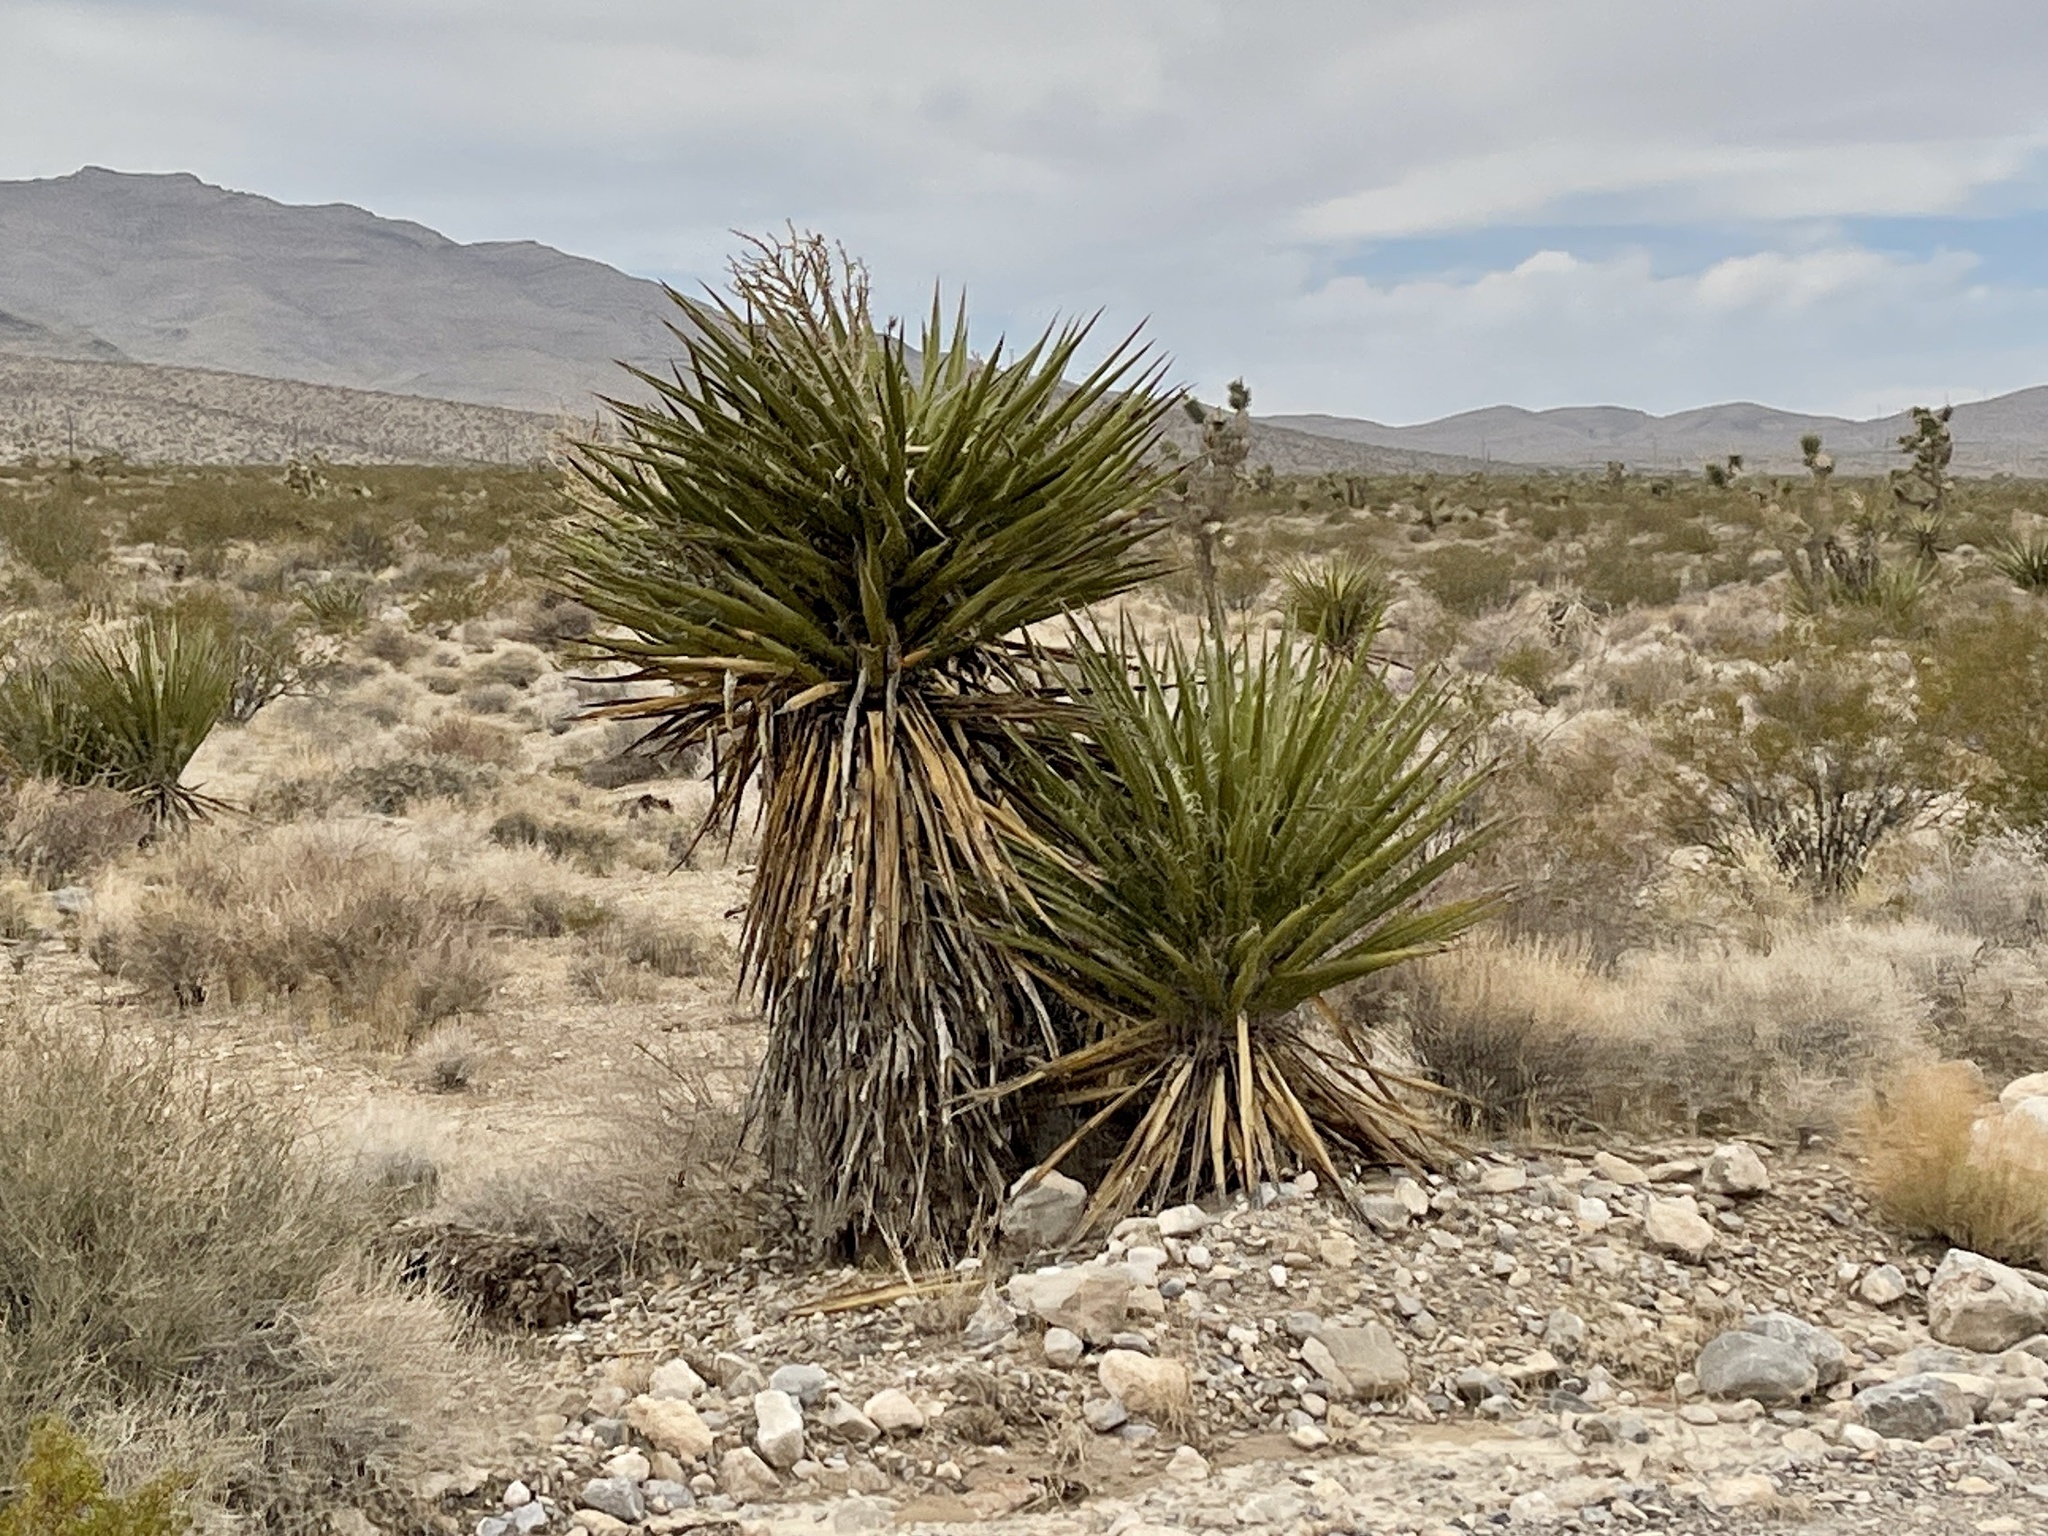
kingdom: Plantae
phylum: Tracheophyta
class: Liliopsida
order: Asparagales
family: Asparagaceae
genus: Yucca
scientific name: Yucca schidigera
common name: Mojave yucca
